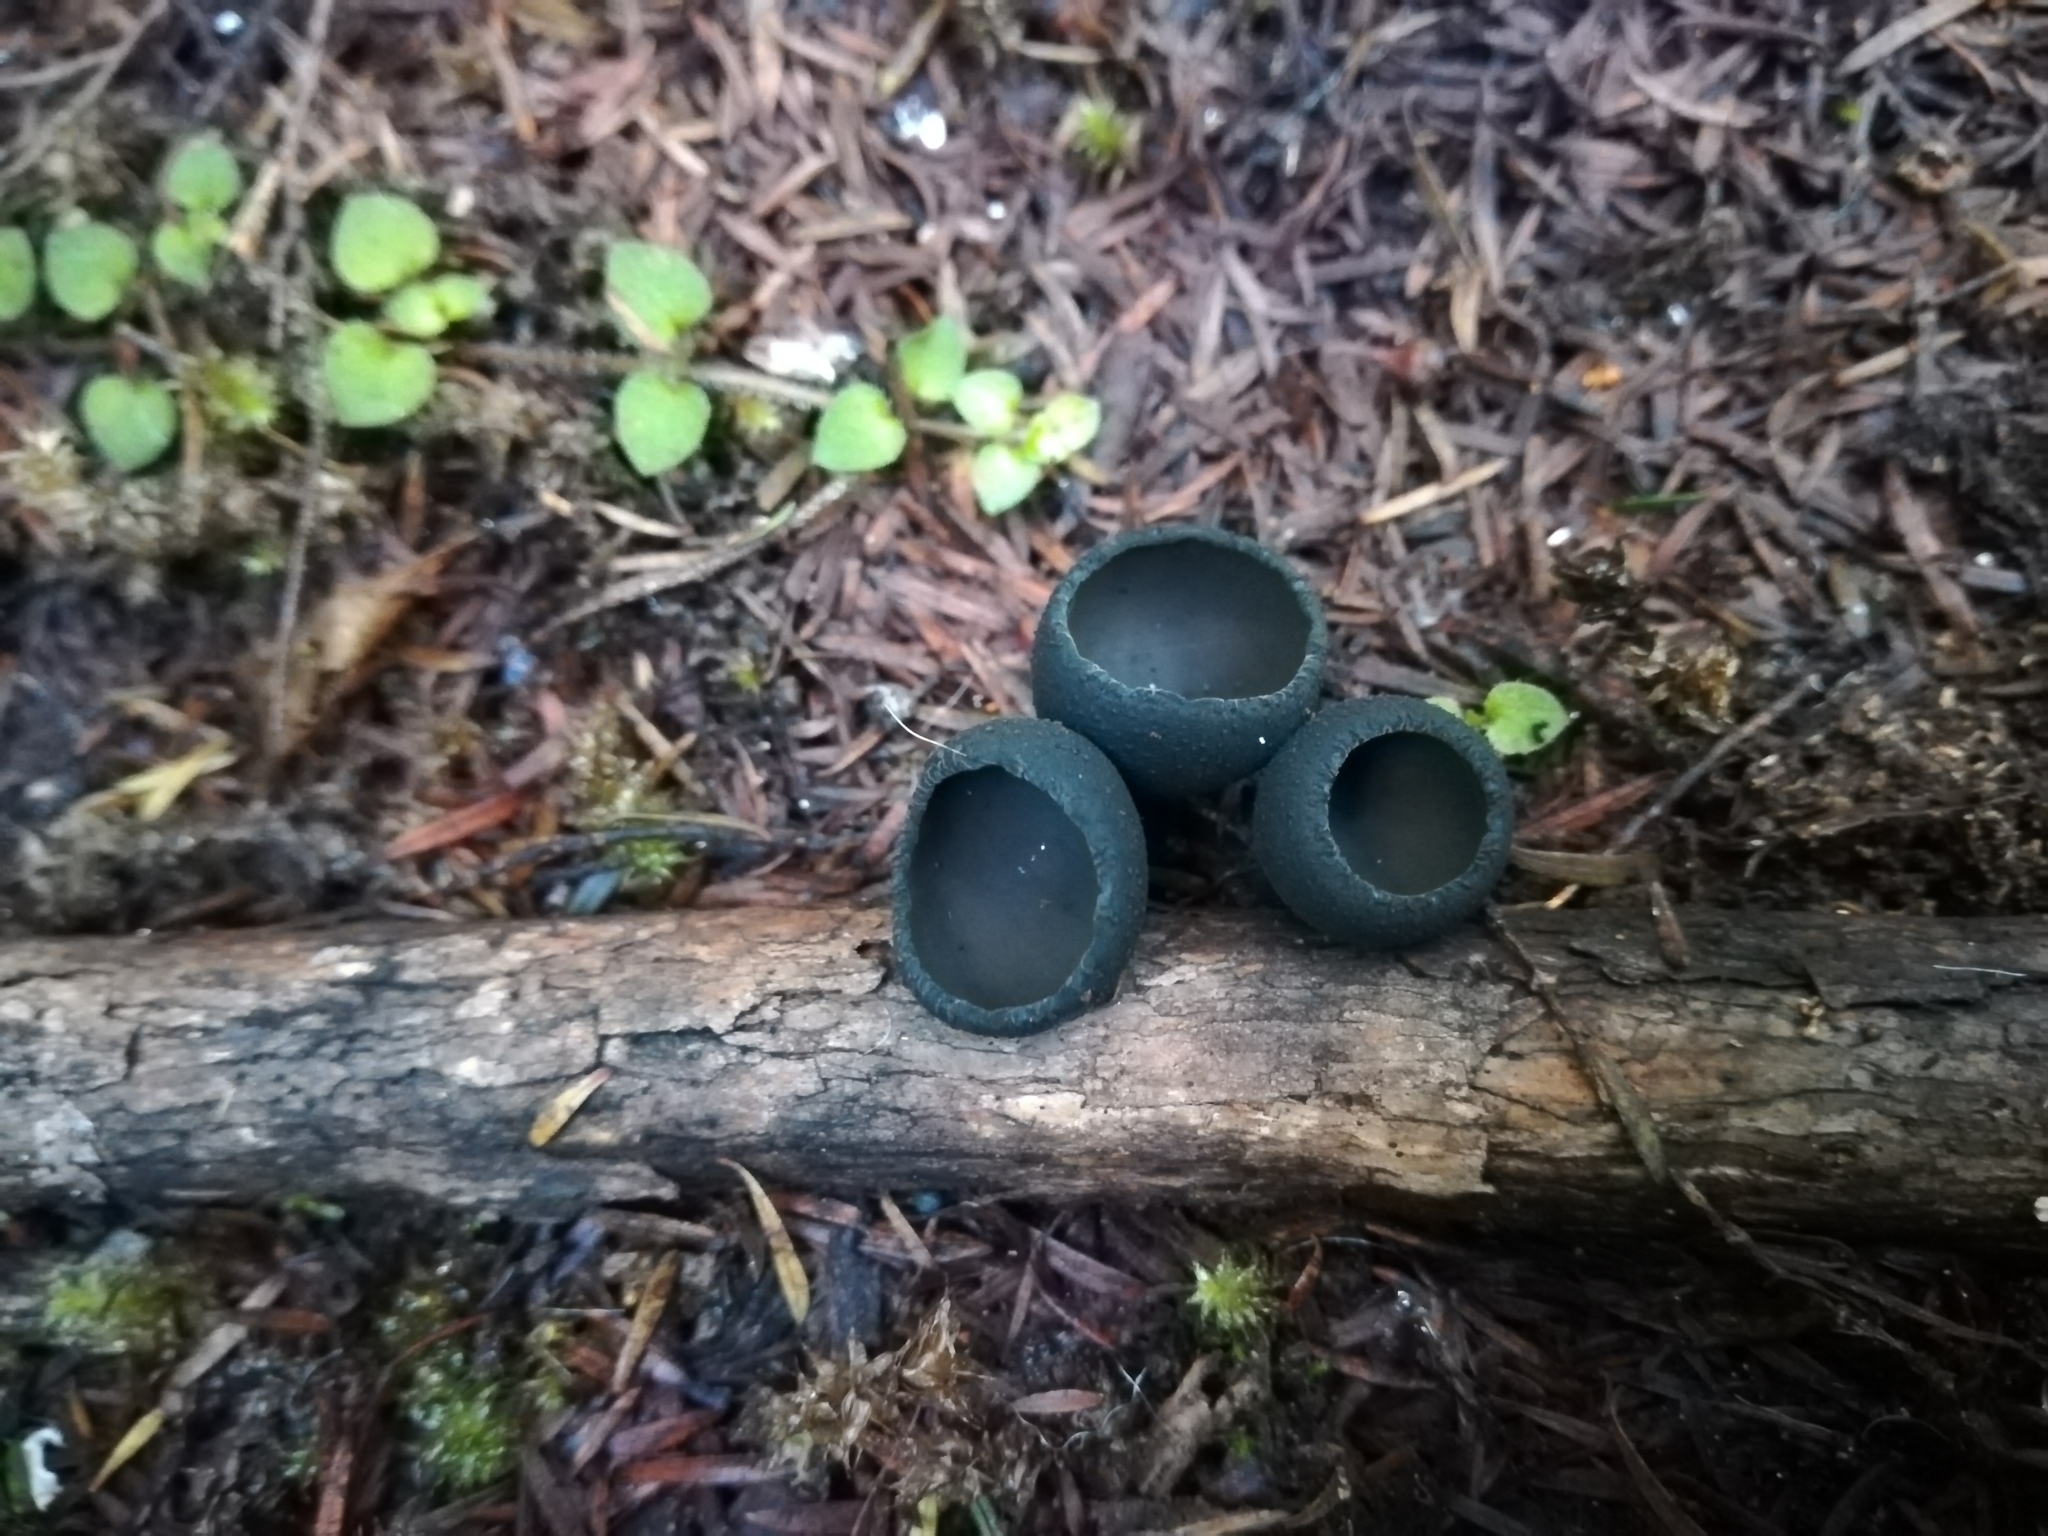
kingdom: Fungi
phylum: Ascomycota
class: Pezizomycetes
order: Pezizales
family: Sarcosomataceae
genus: Plectania
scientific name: Plectania campylospora
